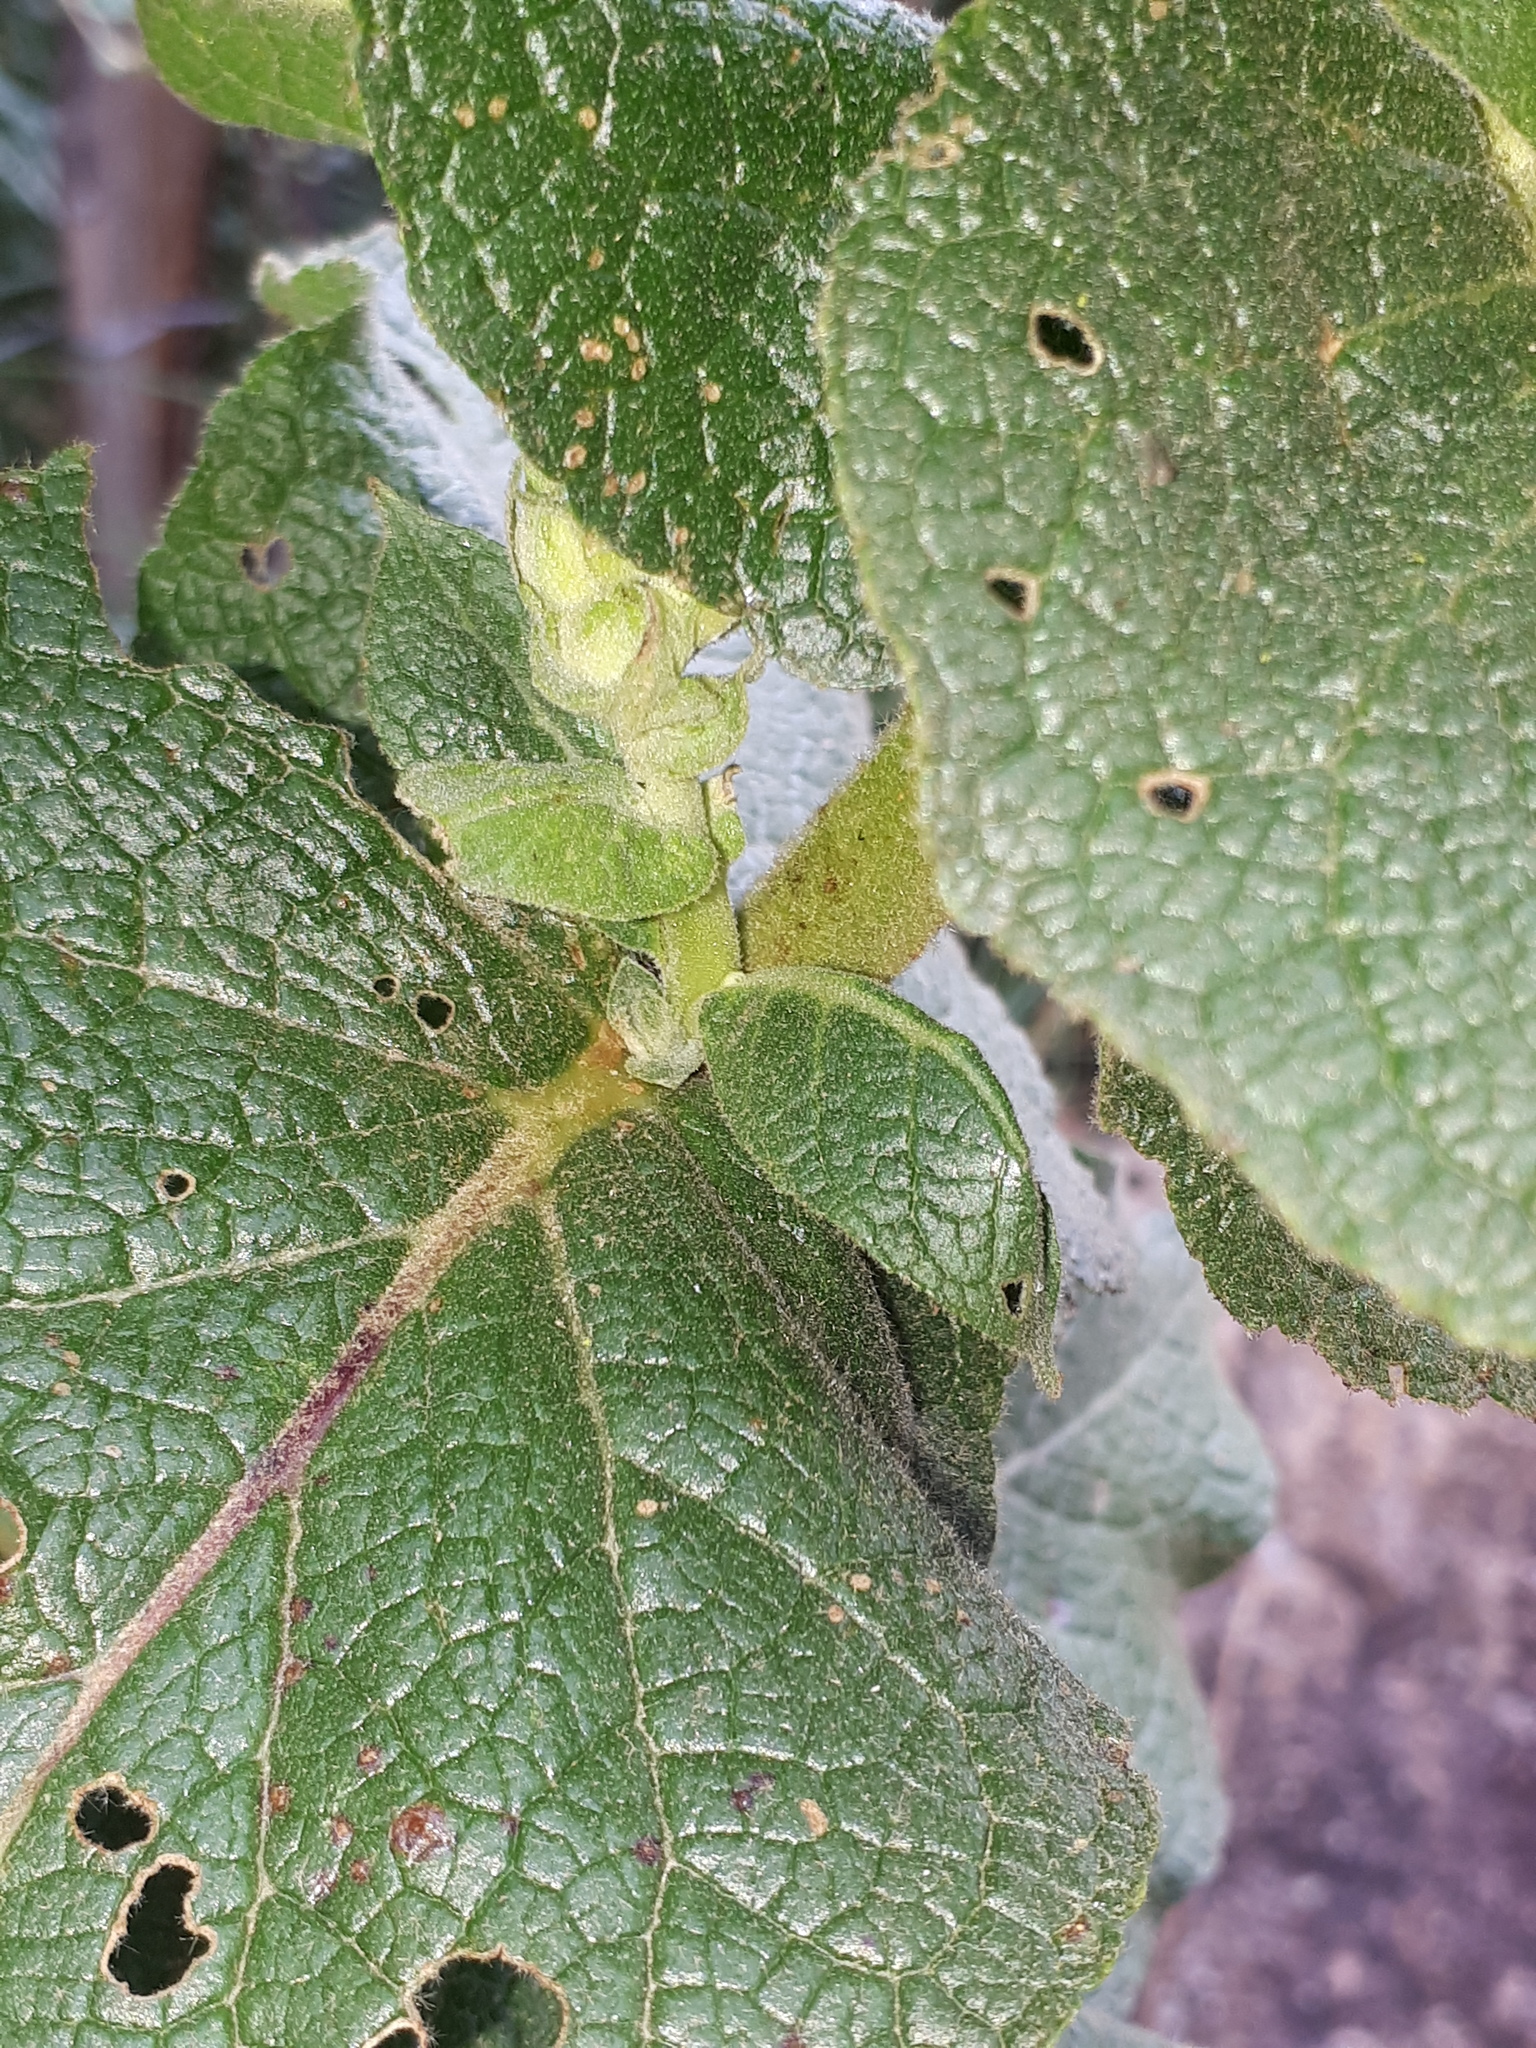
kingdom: Plantae
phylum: Tracheophyta
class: Magnoliopsida
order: Lamiales
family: Scrophulariaceae
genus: Verbascum
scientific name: Verbascum phlomoides
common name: Orange mullein
